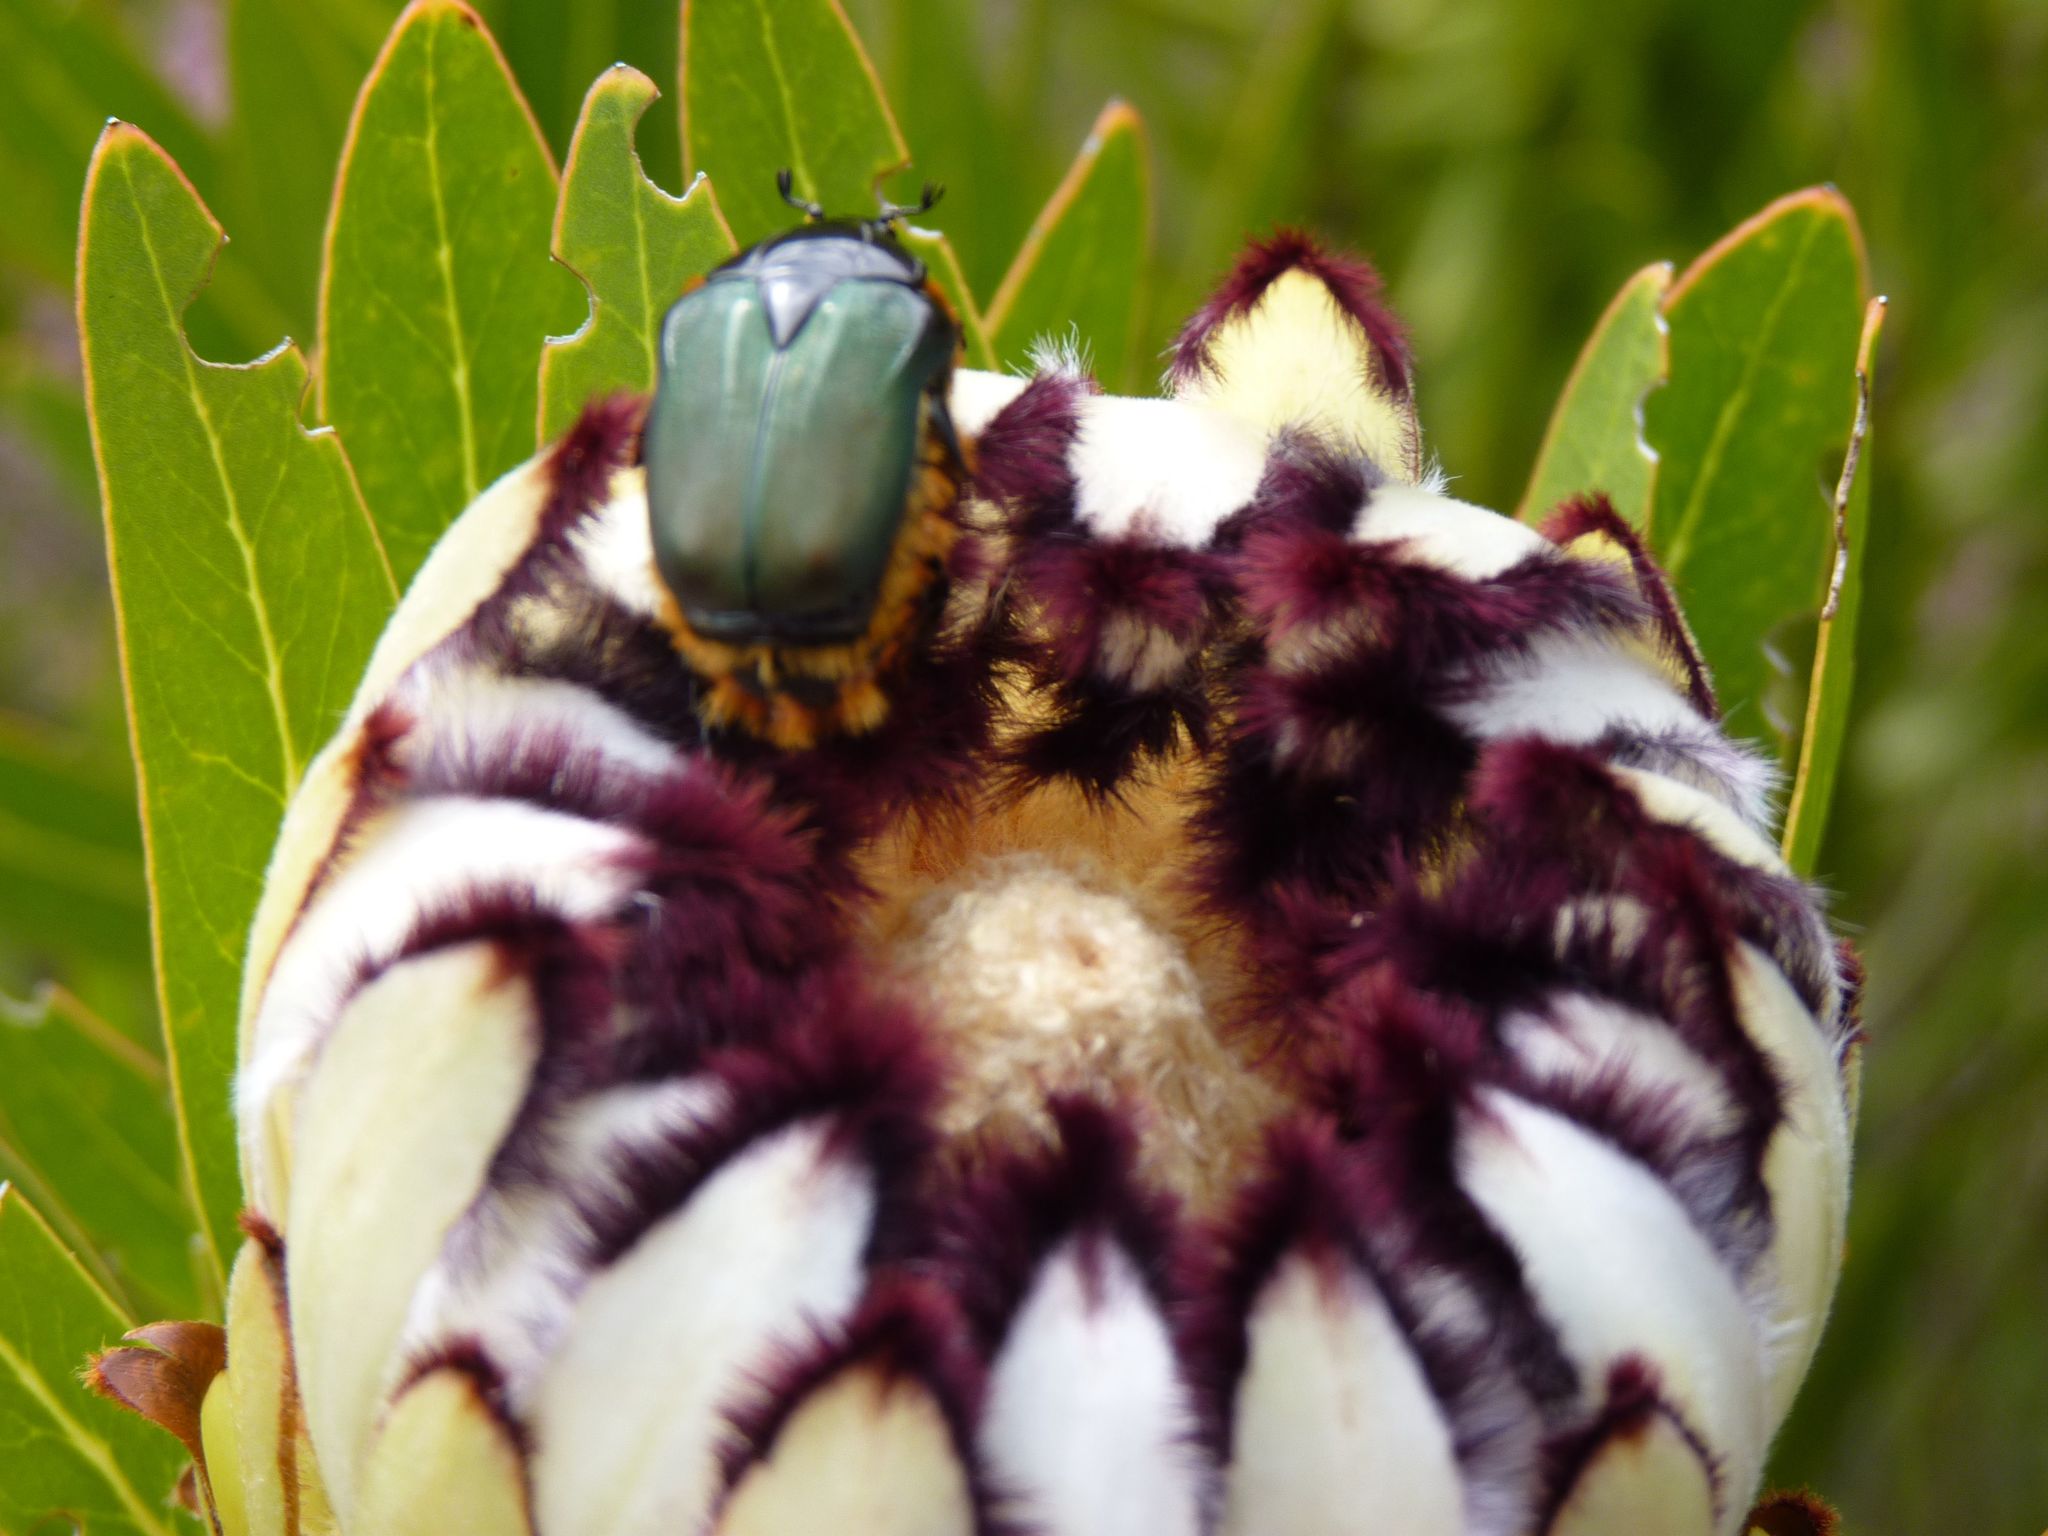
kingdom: Plantae
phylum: Tracheophyta
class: Magnoliopsida
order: Proteales
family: Proteaceae
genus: Protea
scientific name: Protea neriifolia
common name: Blue sugarbush
